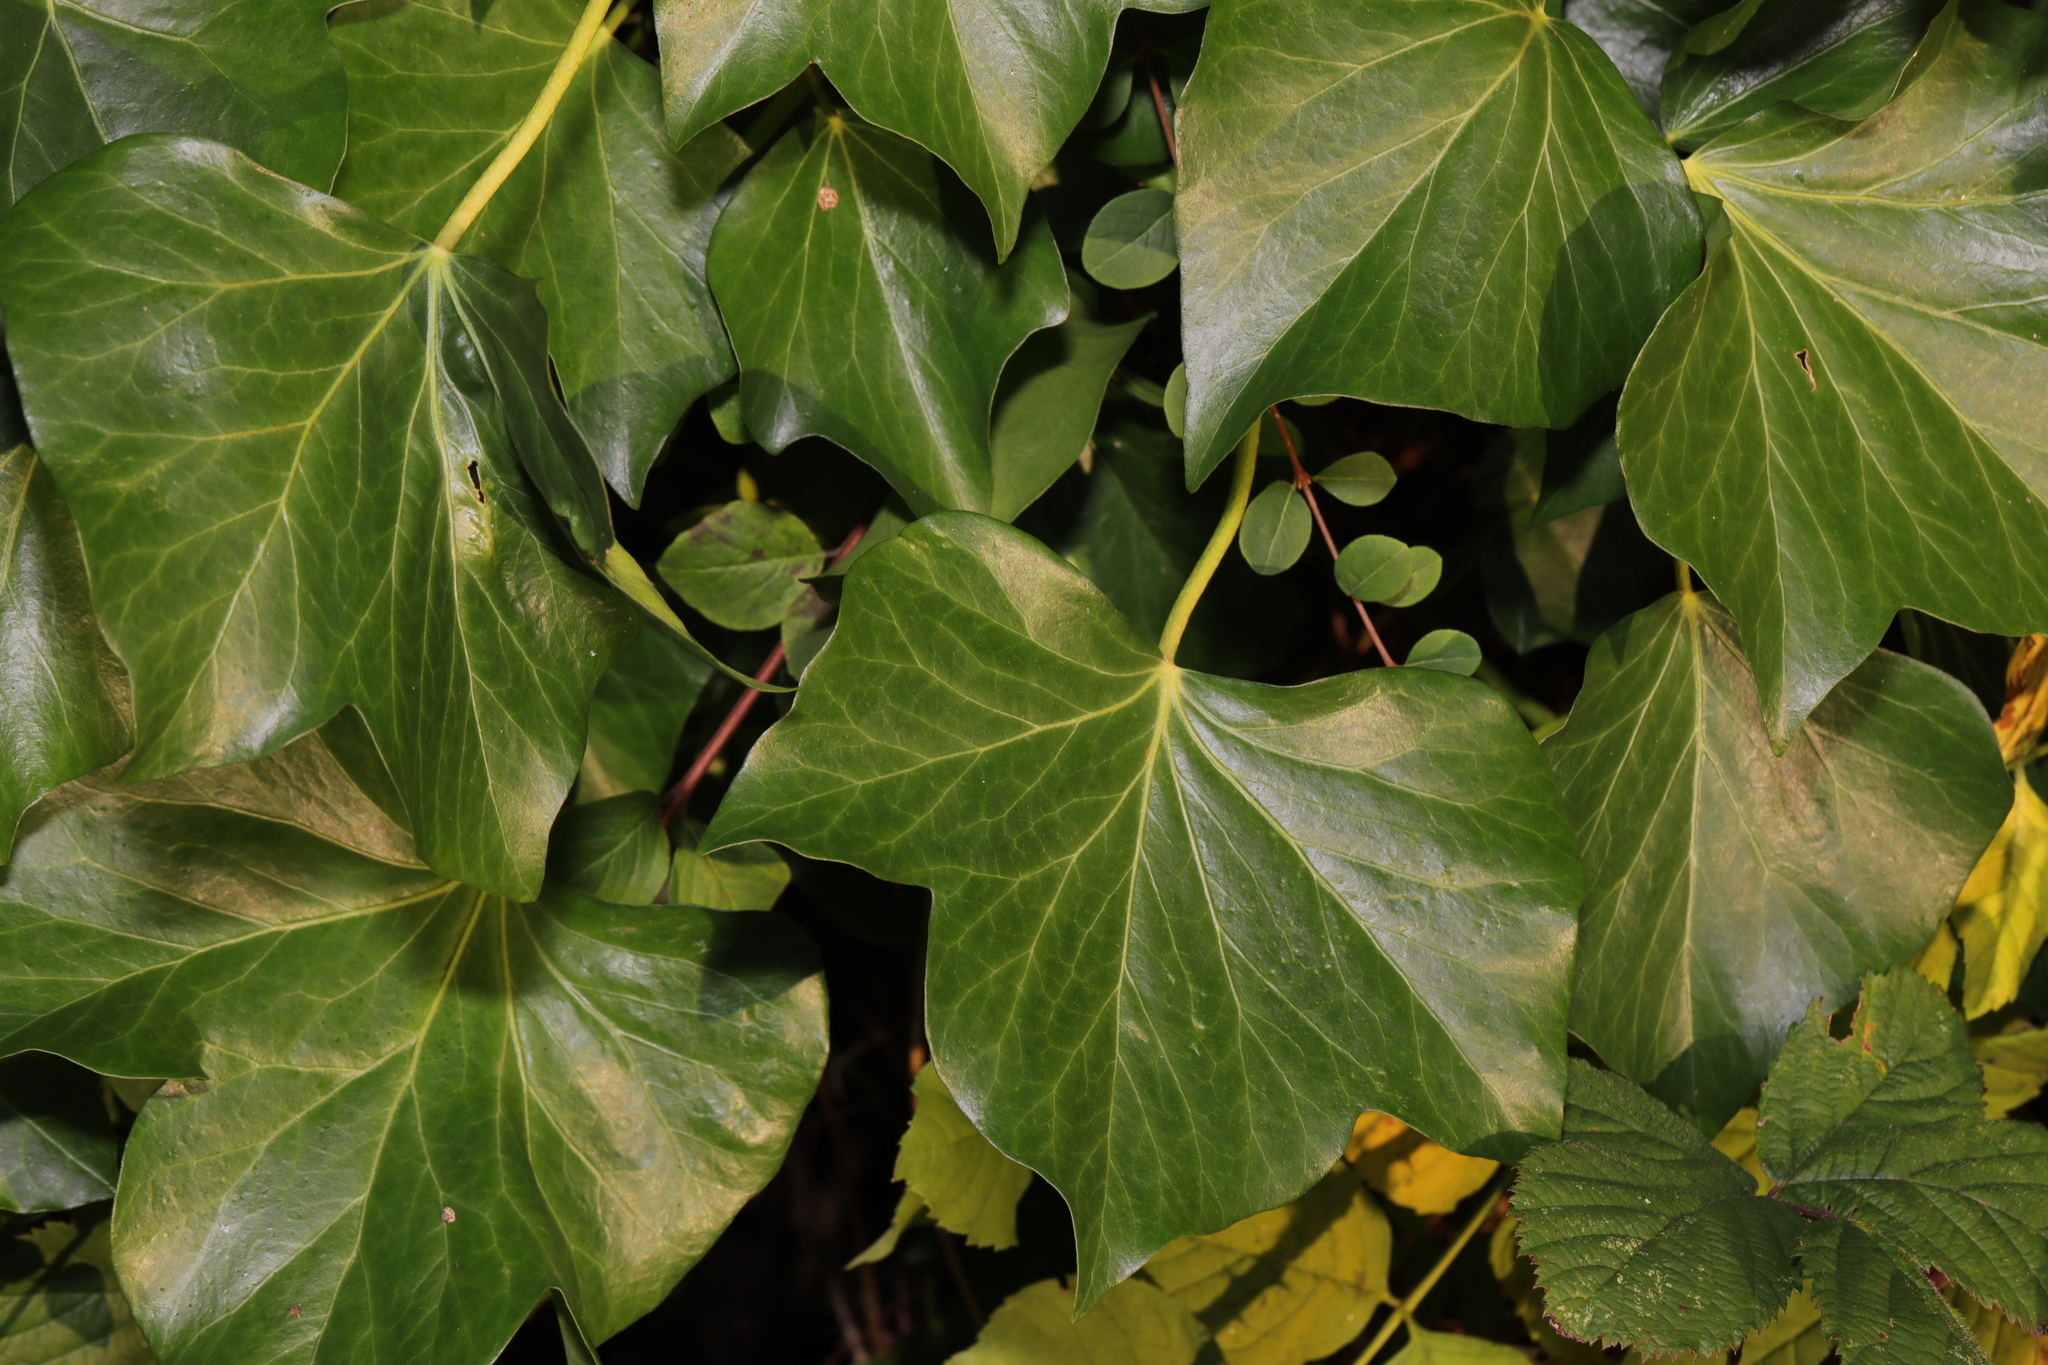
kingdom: Plantae
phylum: Tracheophyta
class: Magnoliopsida
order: Apiales
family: Araliaceae
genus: Hedera
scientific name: Hedera helix
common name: Ivy
